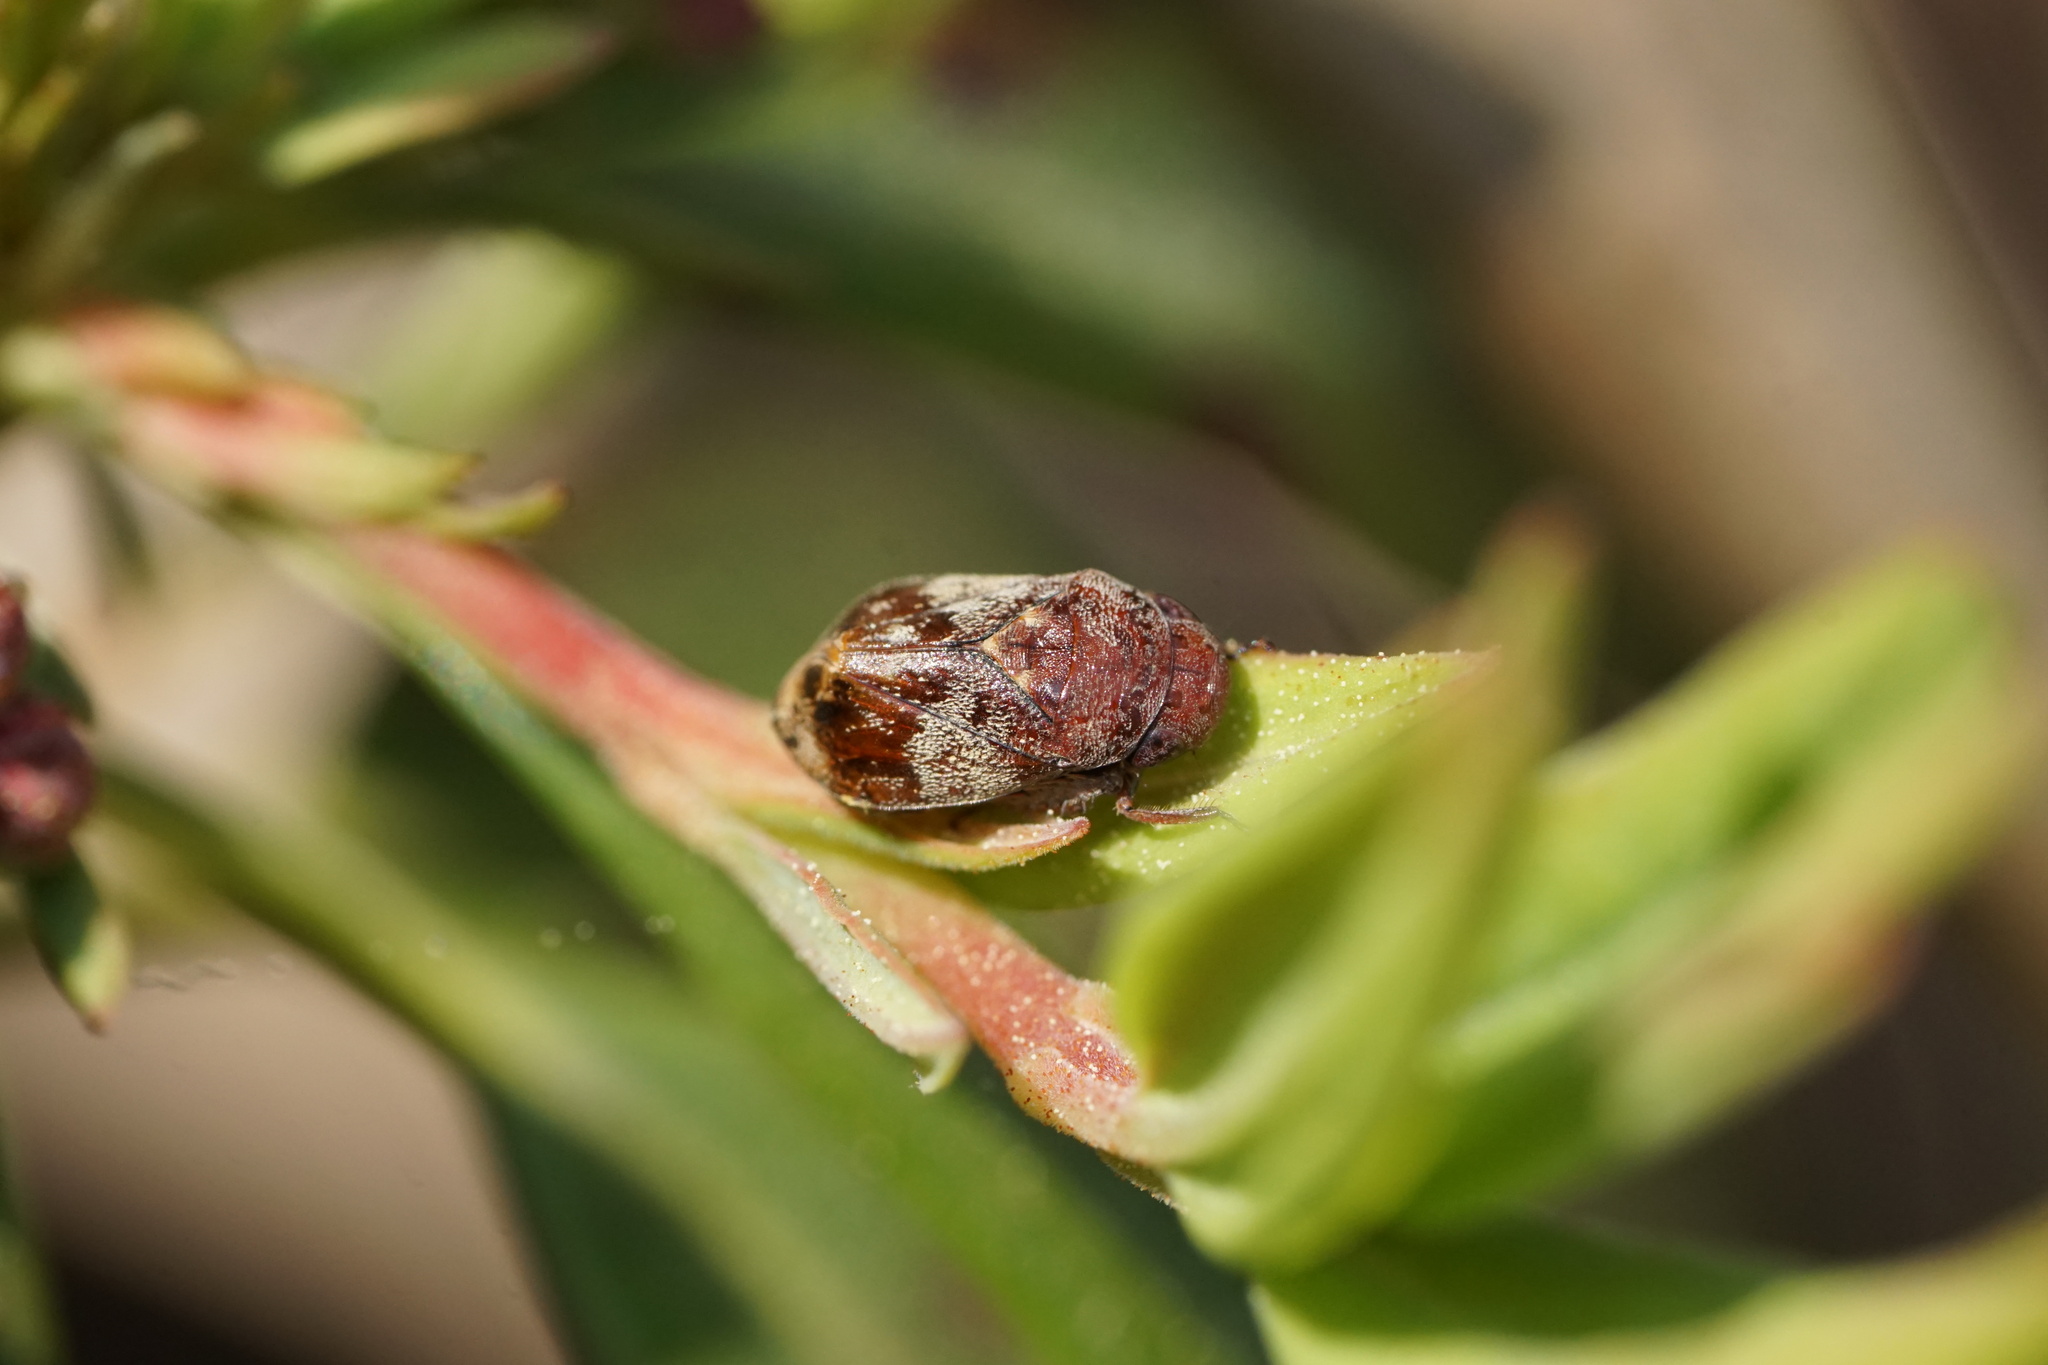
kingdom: Animalia
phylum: Arthropoda
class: Insecta
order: Hemiptera
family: Cicadellidae
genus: Penthimia
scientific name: Penthimia americana
